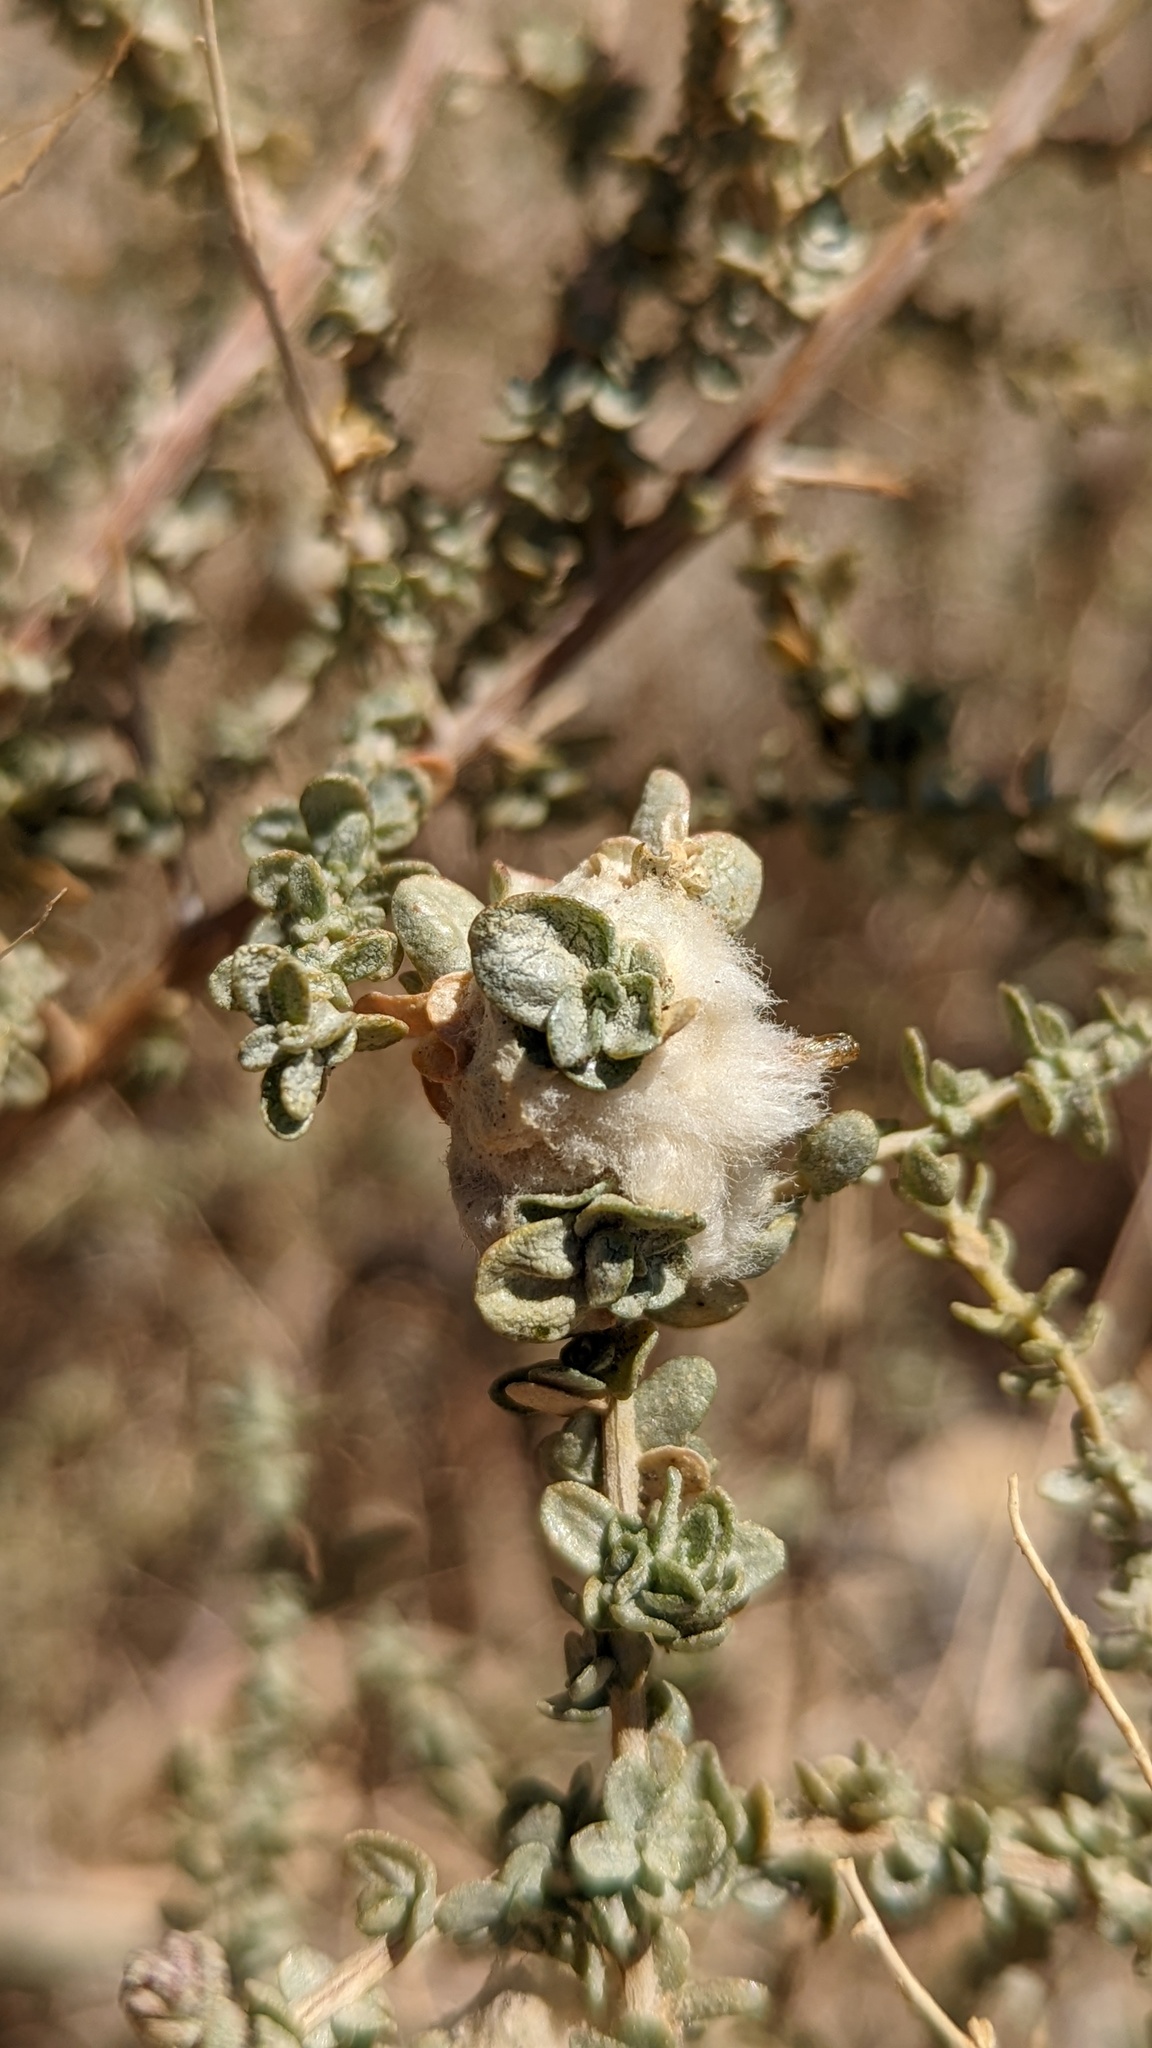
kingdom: Animalia
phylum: Arthropoda
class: Insecta
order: Diptera
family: Cecidomyiidae
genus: Asphondylia
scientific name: Asphondylia floccosa
